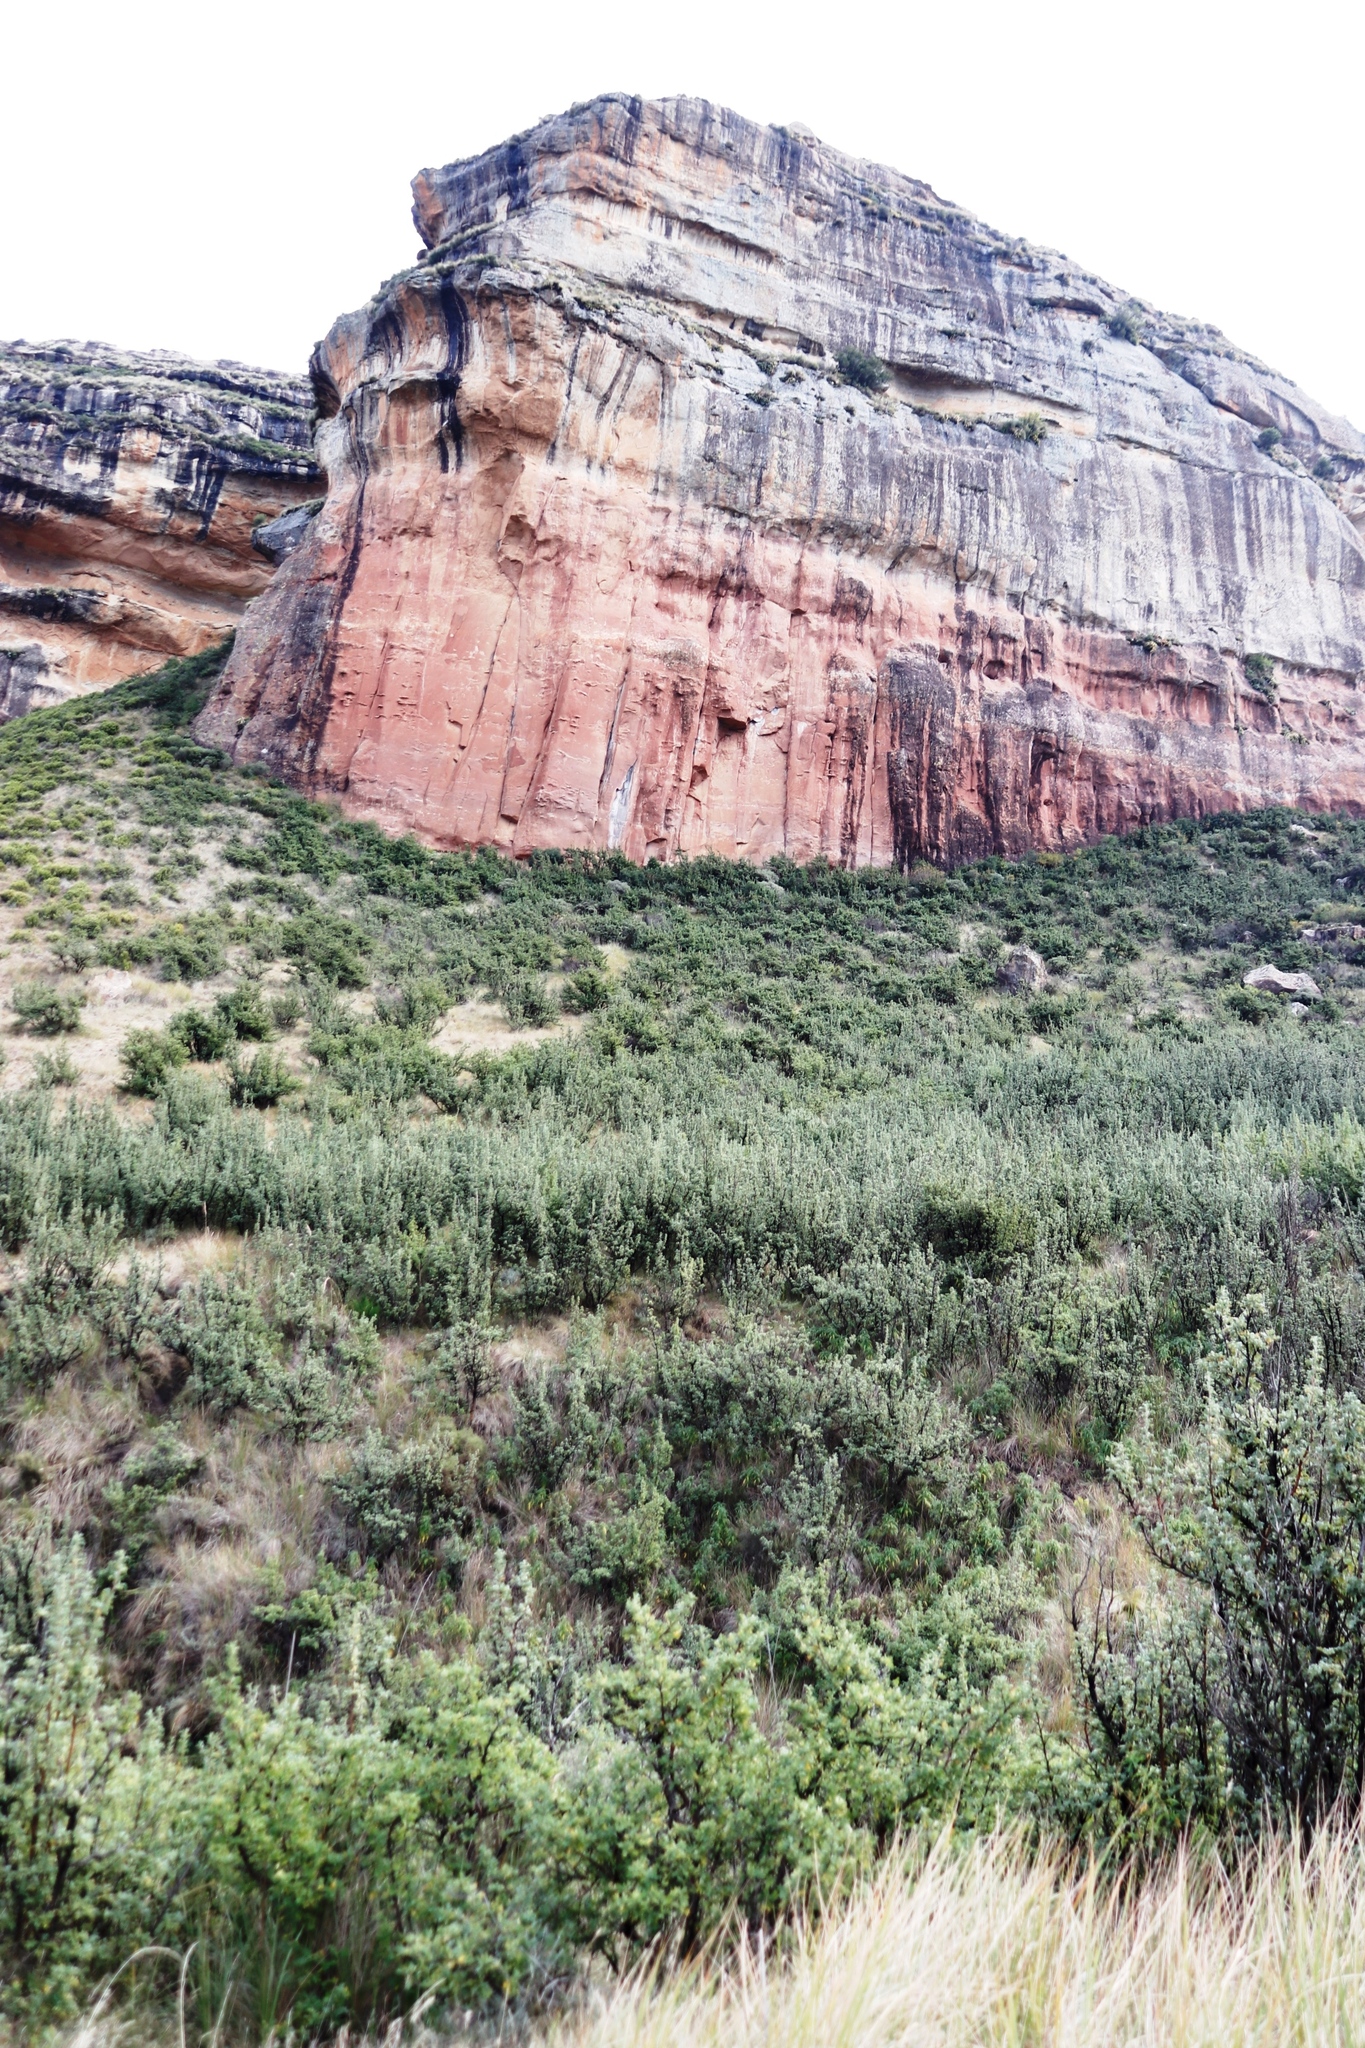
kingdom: Plantae
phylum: Tracheophyta
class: Magnoliopsida
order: Rosales
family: Rosaceae
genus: Leucosidea
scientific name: Leucosidea sericea
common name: Oldwood
